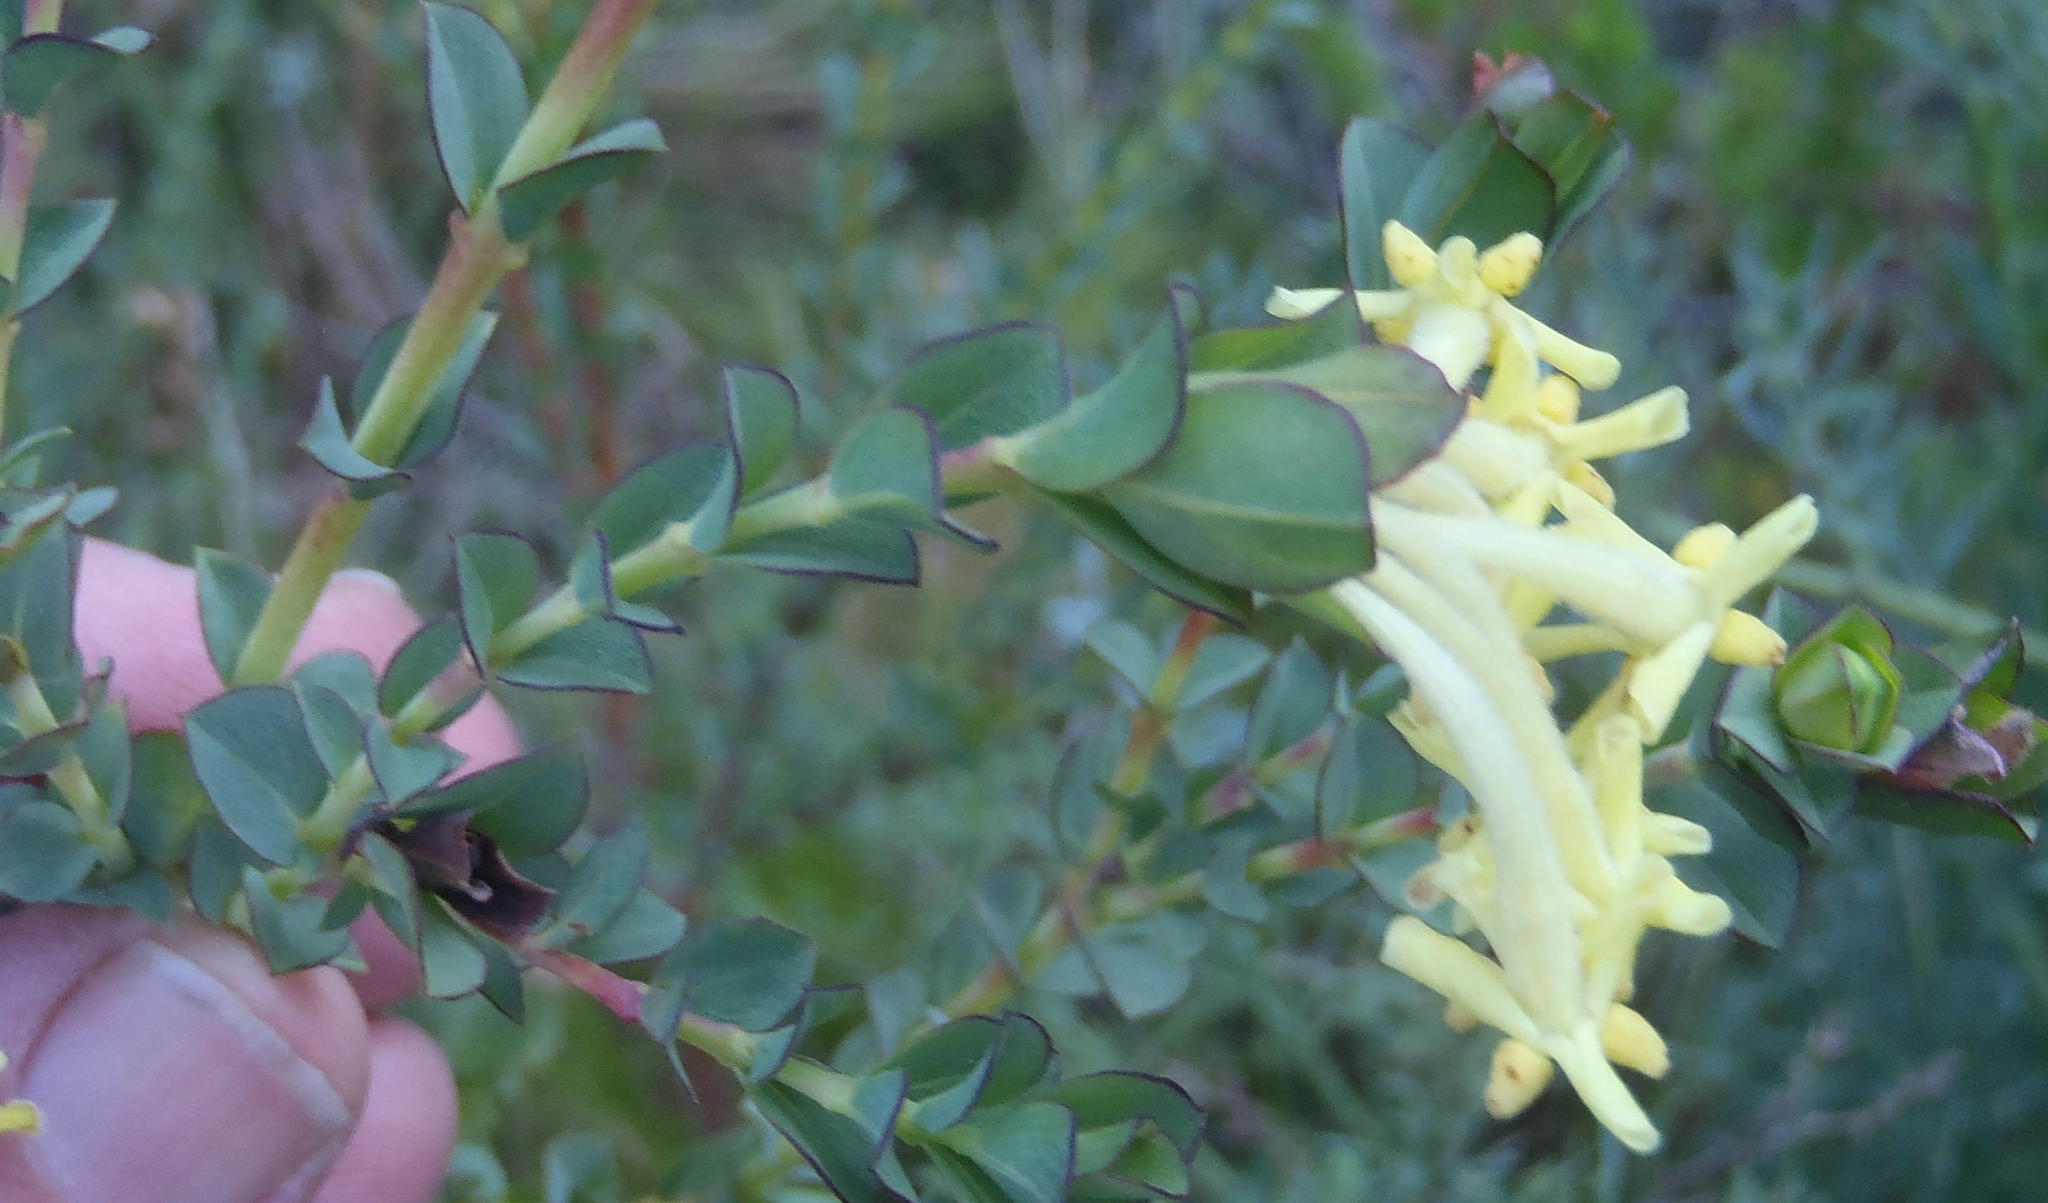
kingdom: Plantae
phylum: Tracheophyta
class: Magnoliopsida
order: Malvales
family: Thymelaeaceae
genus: Gnidia
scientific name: Gnidia oppositifolia
